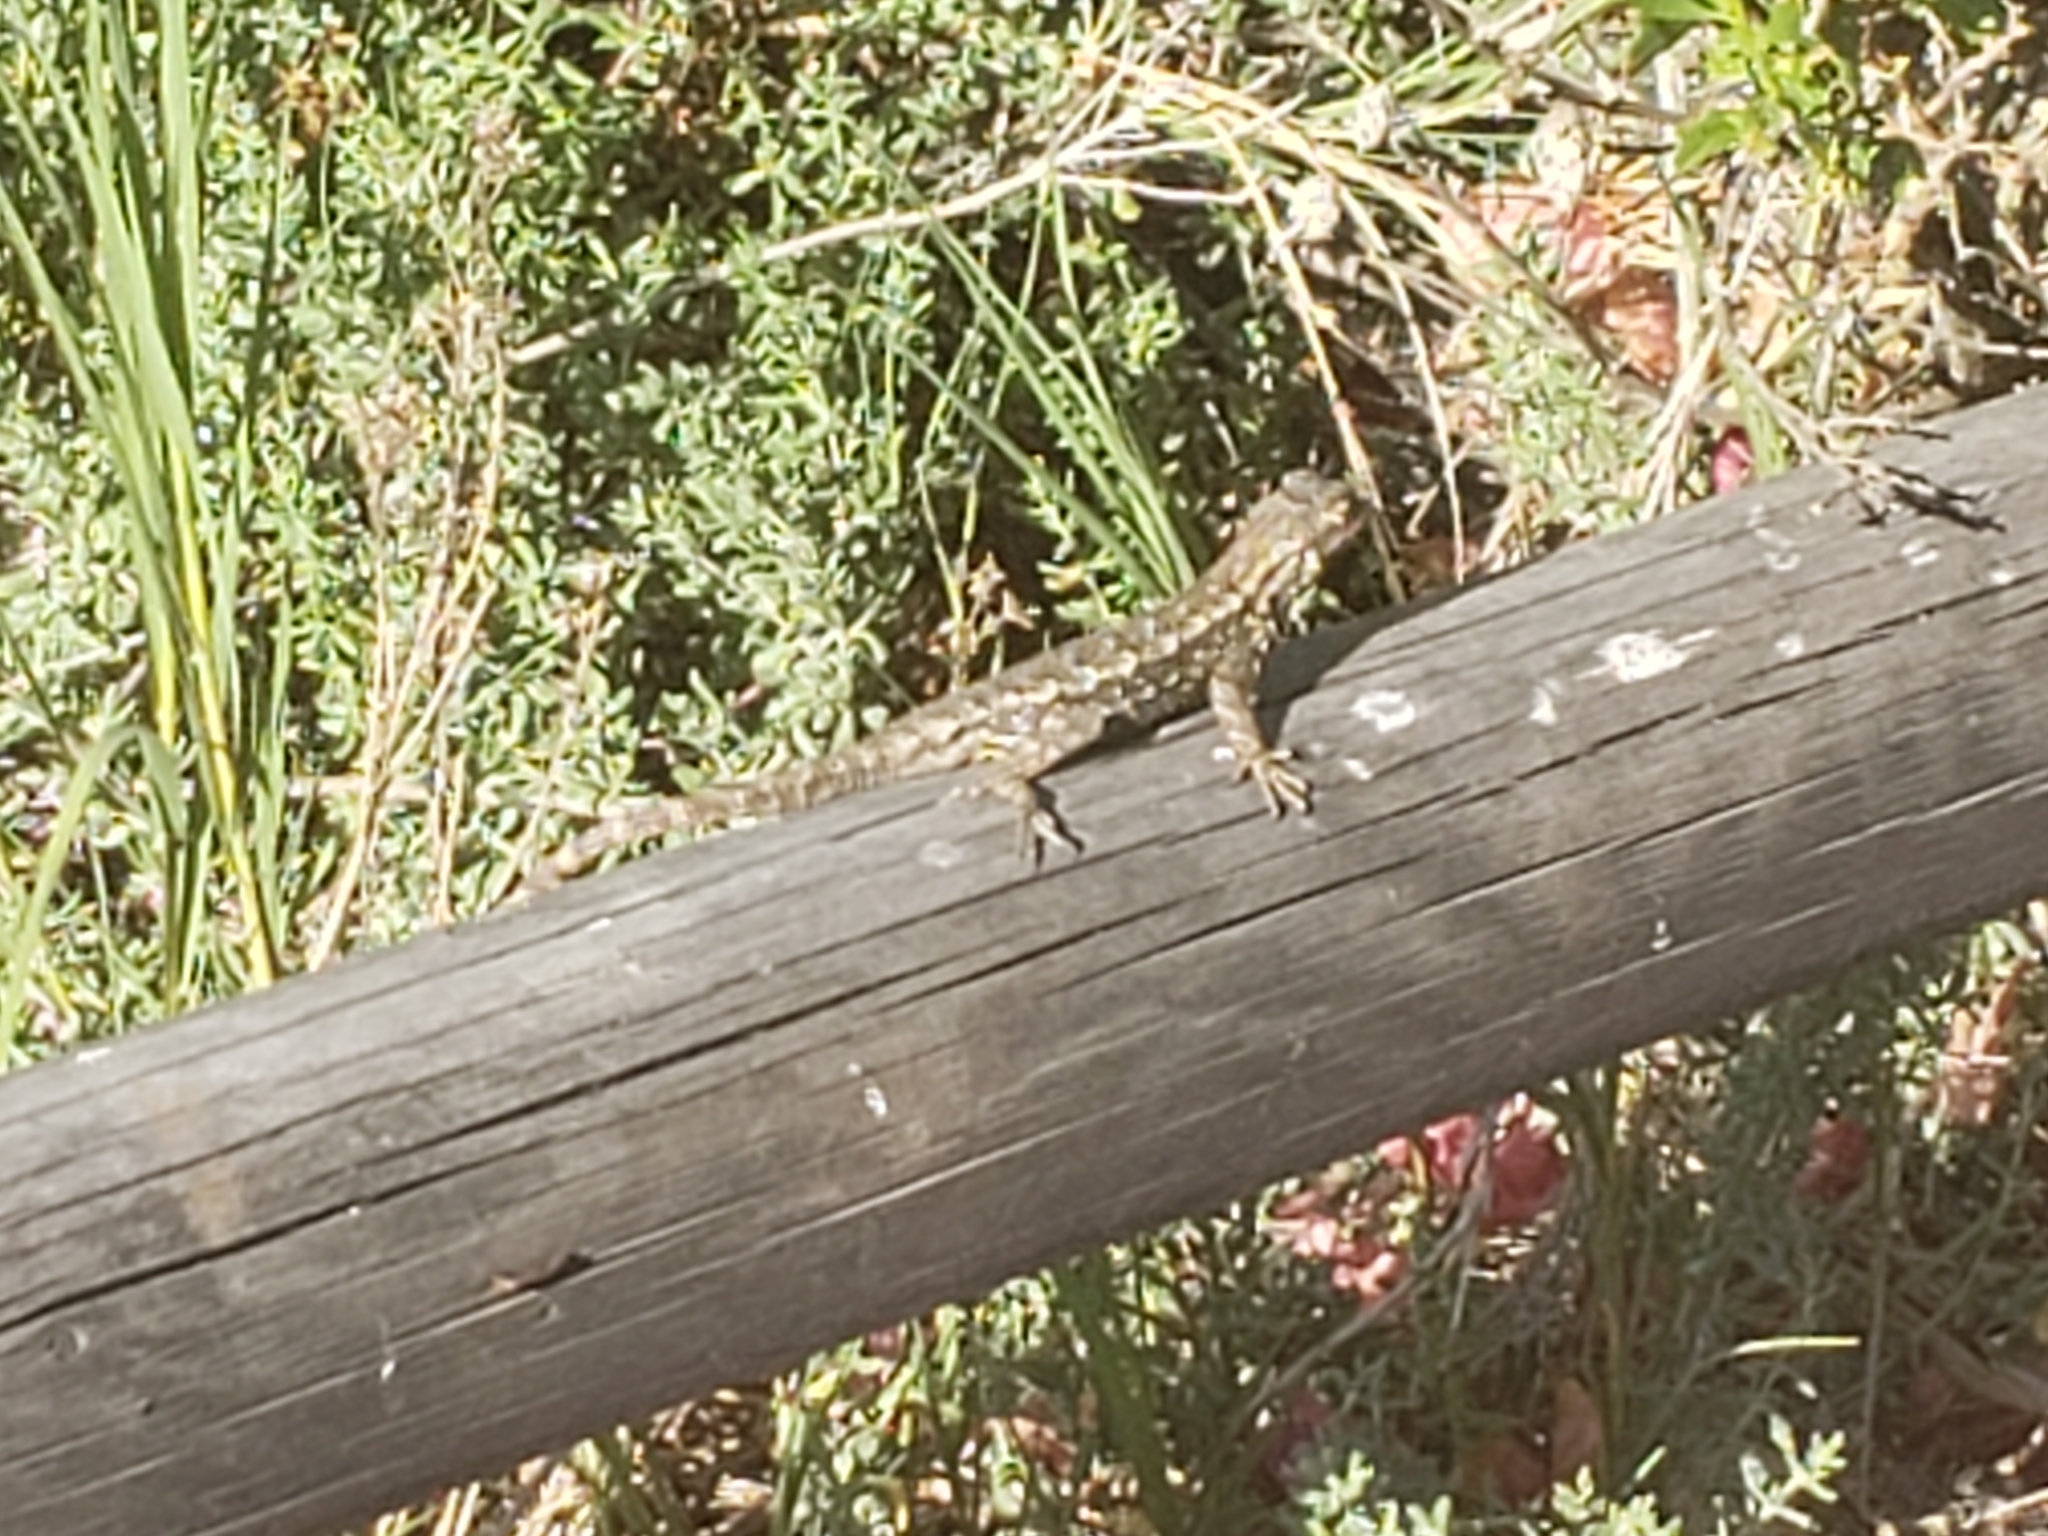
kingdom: Animalia
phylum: Chordata
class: Squamata
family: Phrynosomatidae
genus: Sceloporus
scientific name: Sceloporus occidentalis
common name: Western fence lizard
